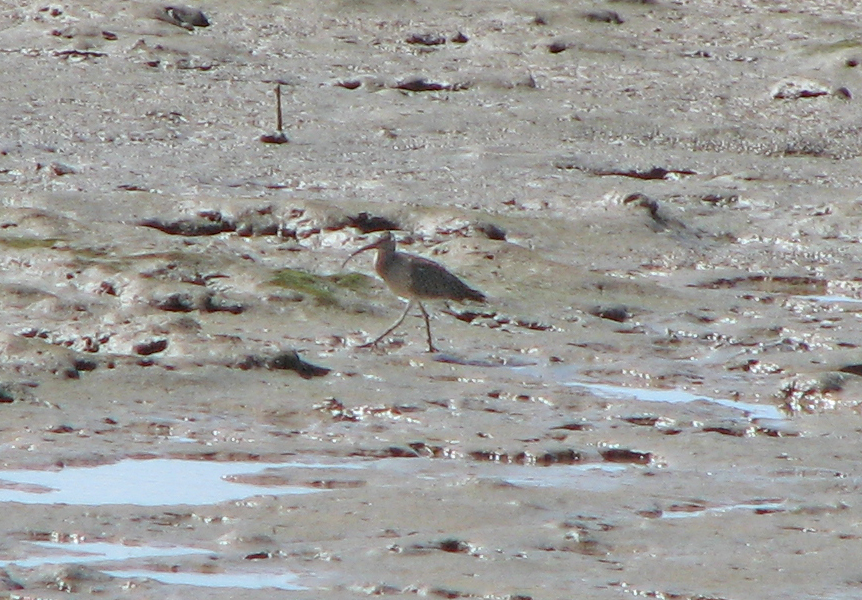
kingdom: Animalia
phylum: Chordata
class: Aves
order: Charadriiformes
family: Scolopacidae
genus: Numenius
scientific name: Numenius phaeopus
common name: Whimbrel
